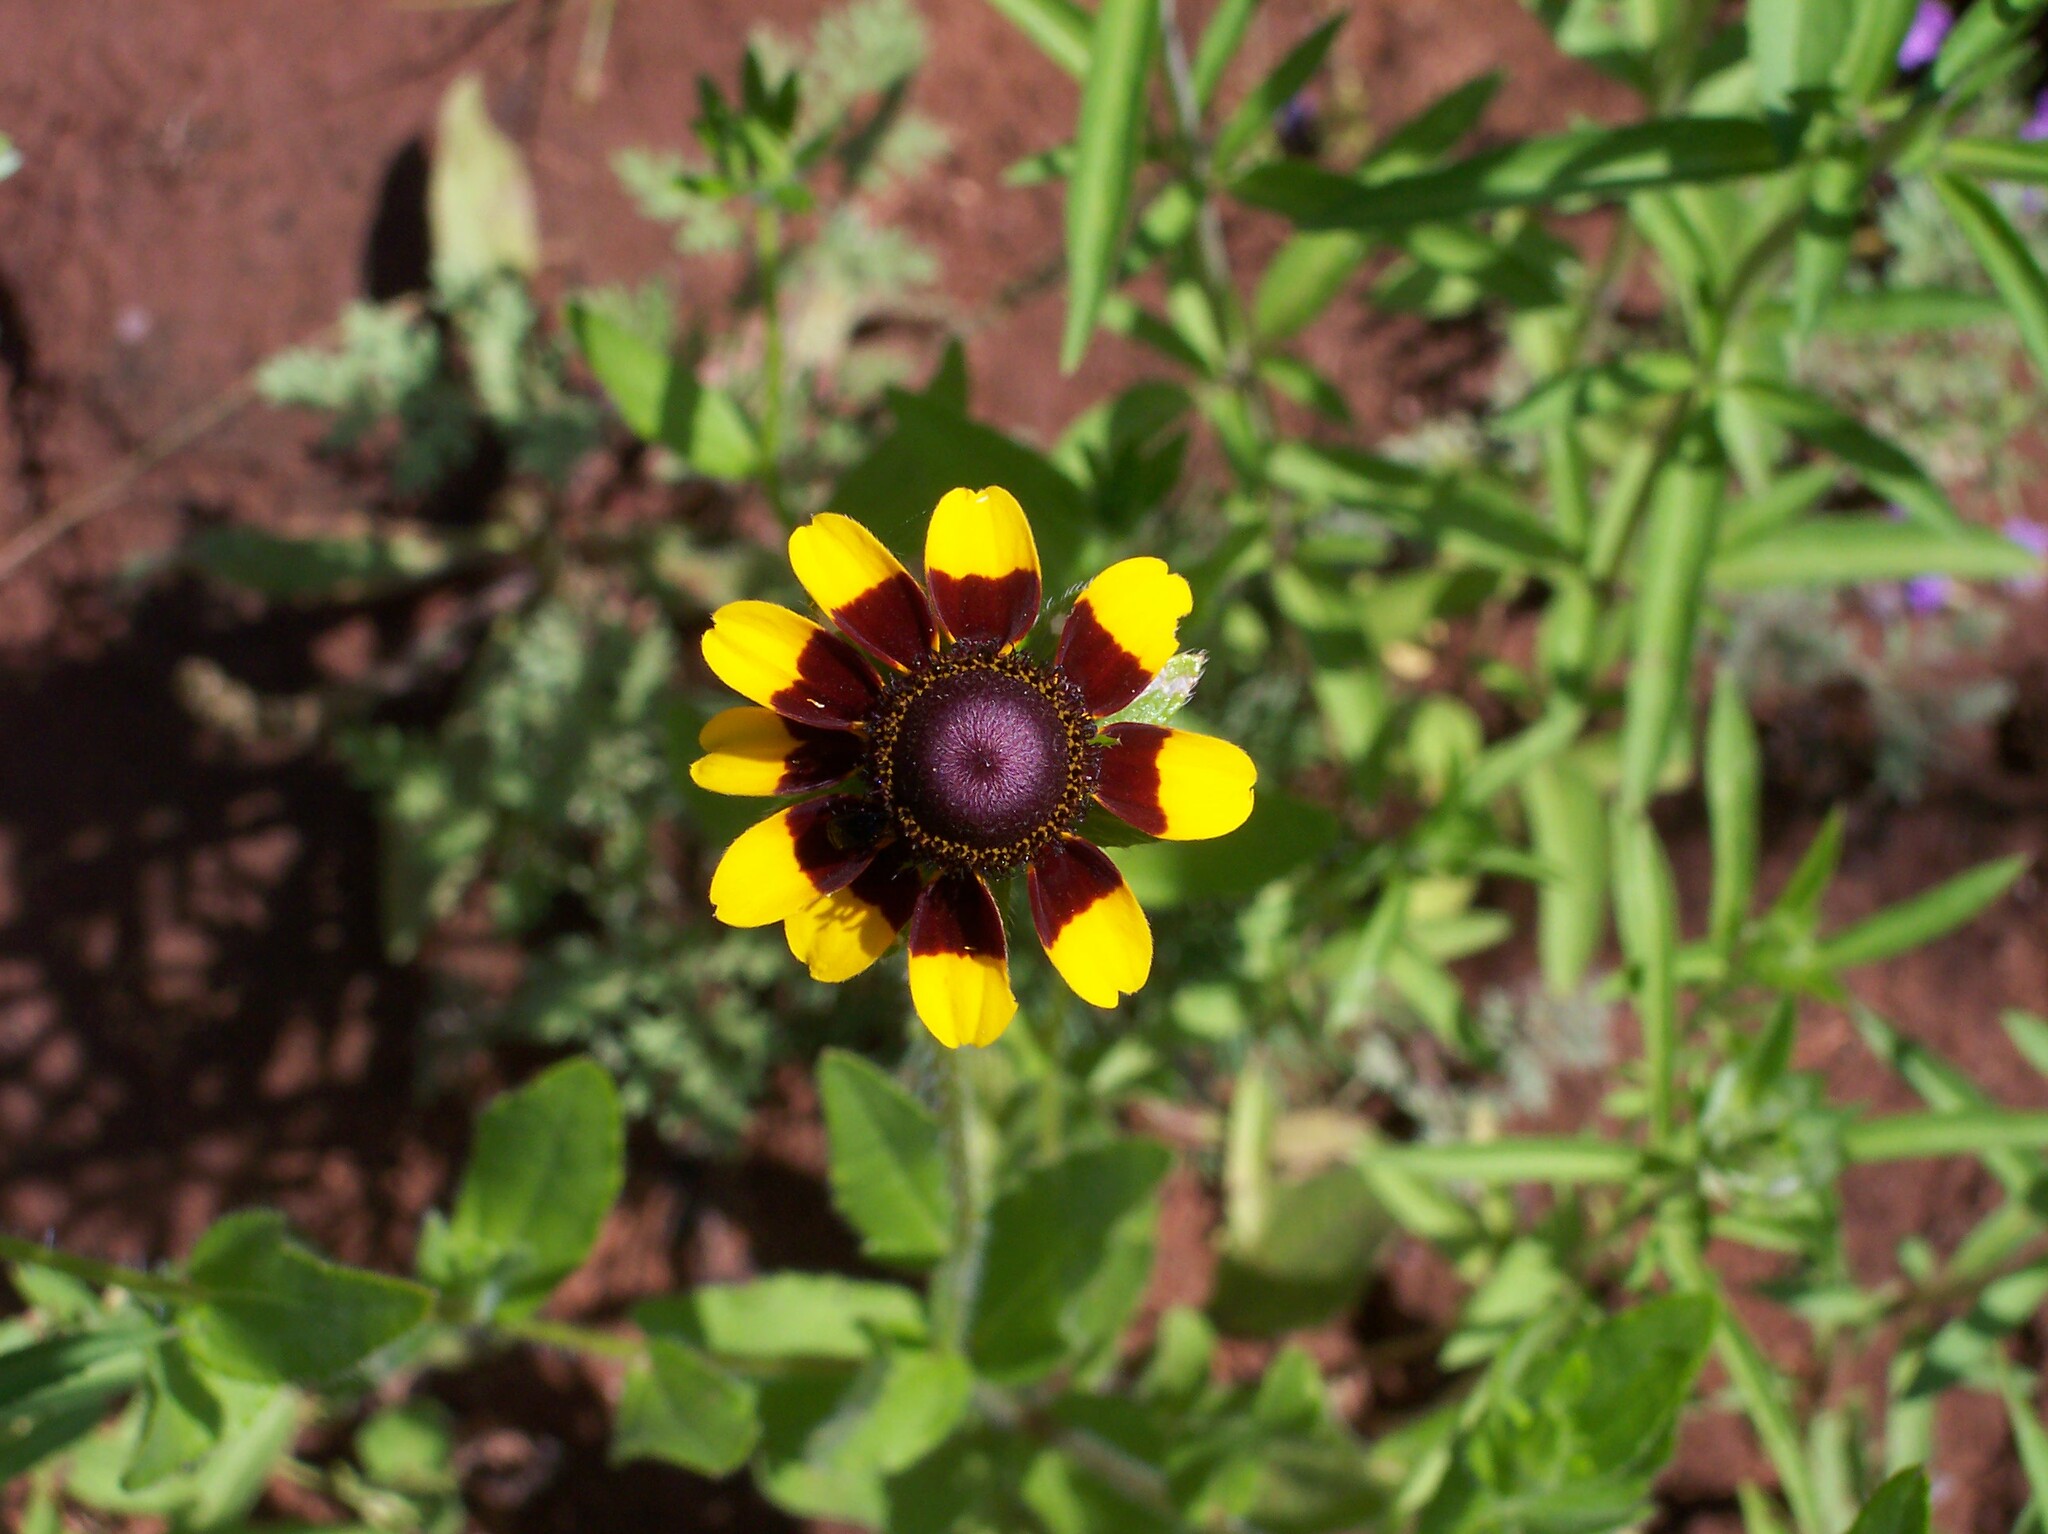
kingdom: Plantae
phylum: Tracheophyta
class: Magnoliopsida
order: Asterales
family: Asteraceae
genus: Rudbeckia
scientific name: Rudbeckia hirta
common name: Black-eyed-susan
